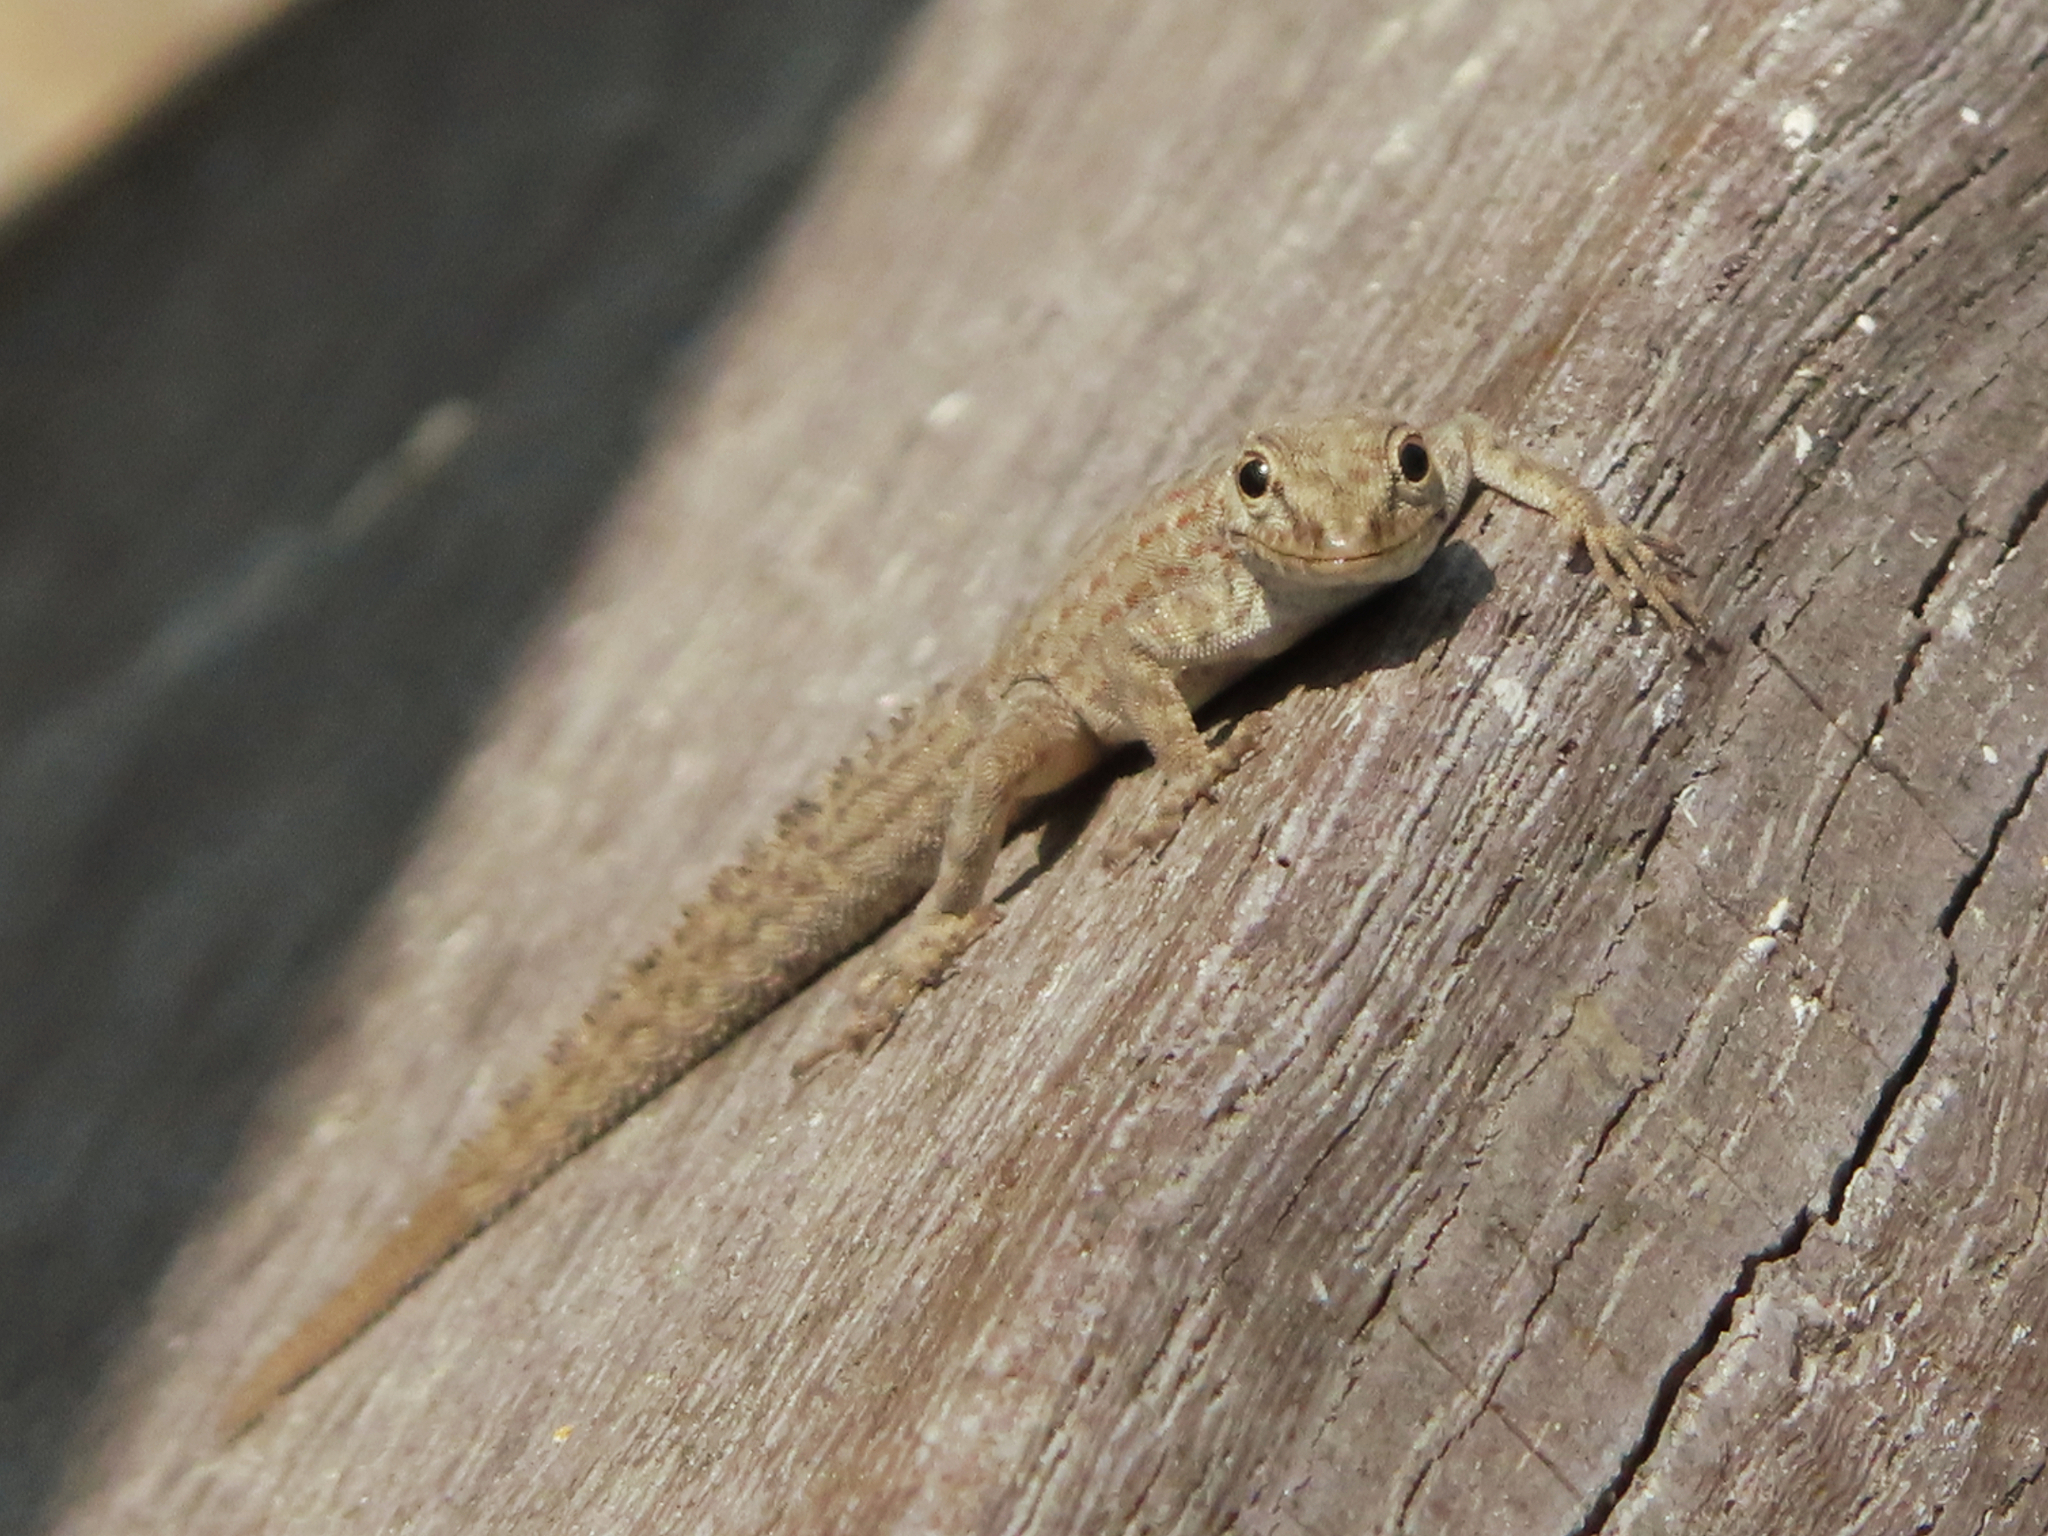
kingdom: Animalia
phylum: Chordata
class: Squamata
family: Sphaerodactylidae
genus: Pristurus
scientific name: Pristurus rupestris
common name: Blanford’s semaphore gecko
